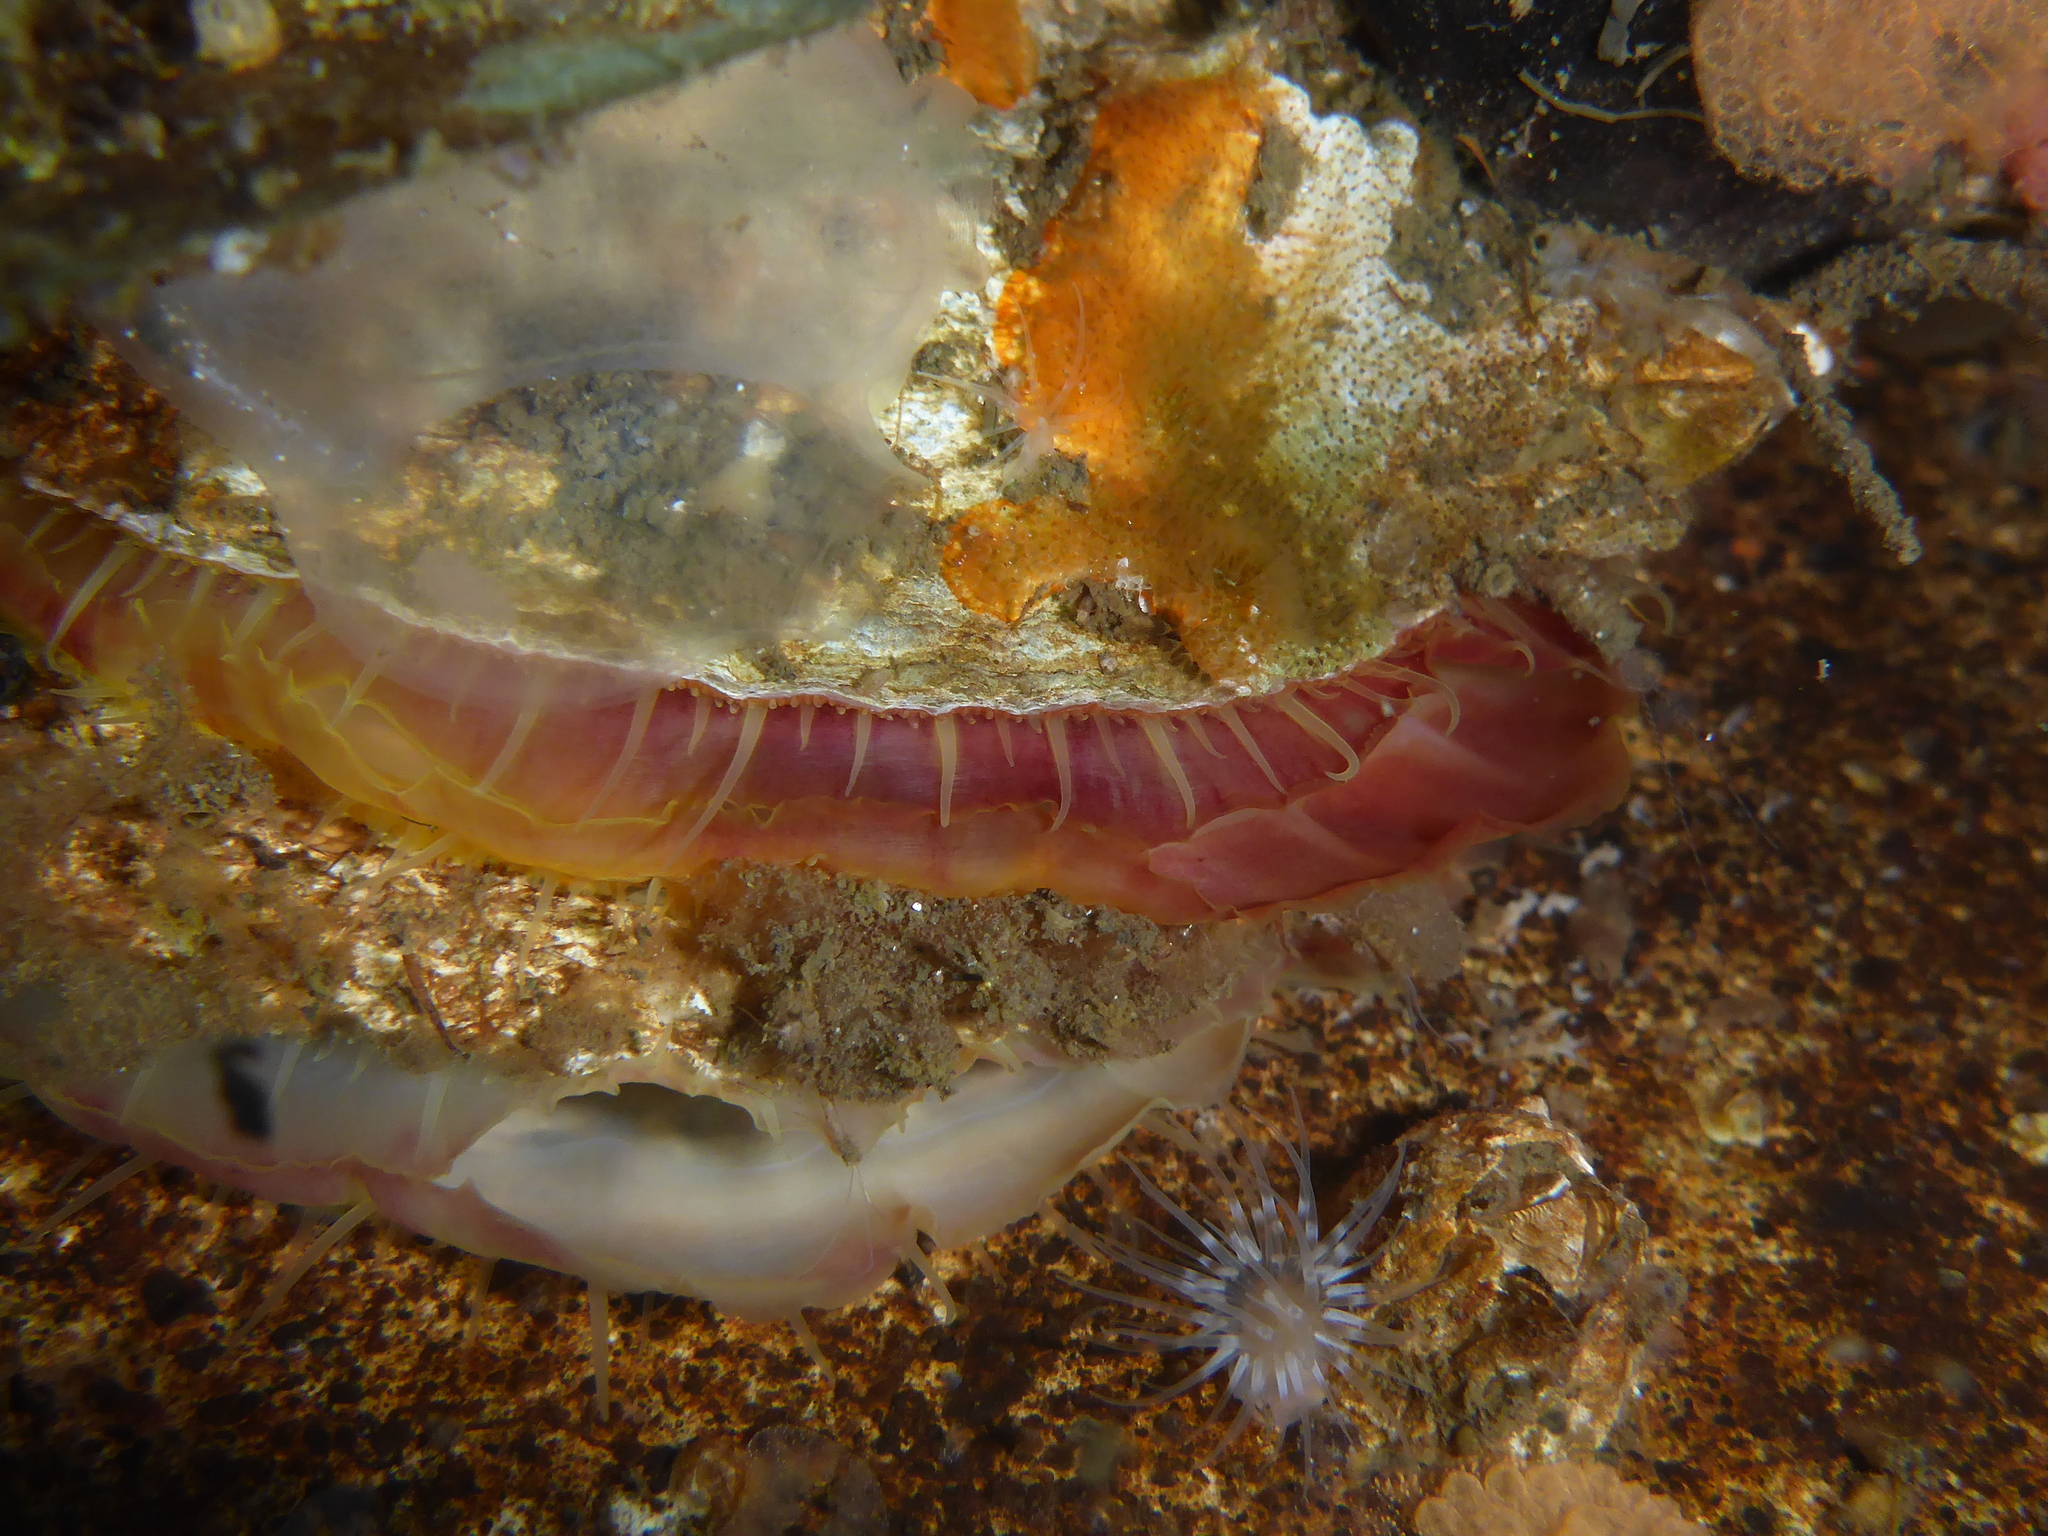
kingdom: Animalia
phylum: Mollusca
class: Bivalvia
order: Pectinida
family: Anomiidae
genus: Pododesmus
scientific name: Pododesmus macrochisma
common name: Alaska jingle
